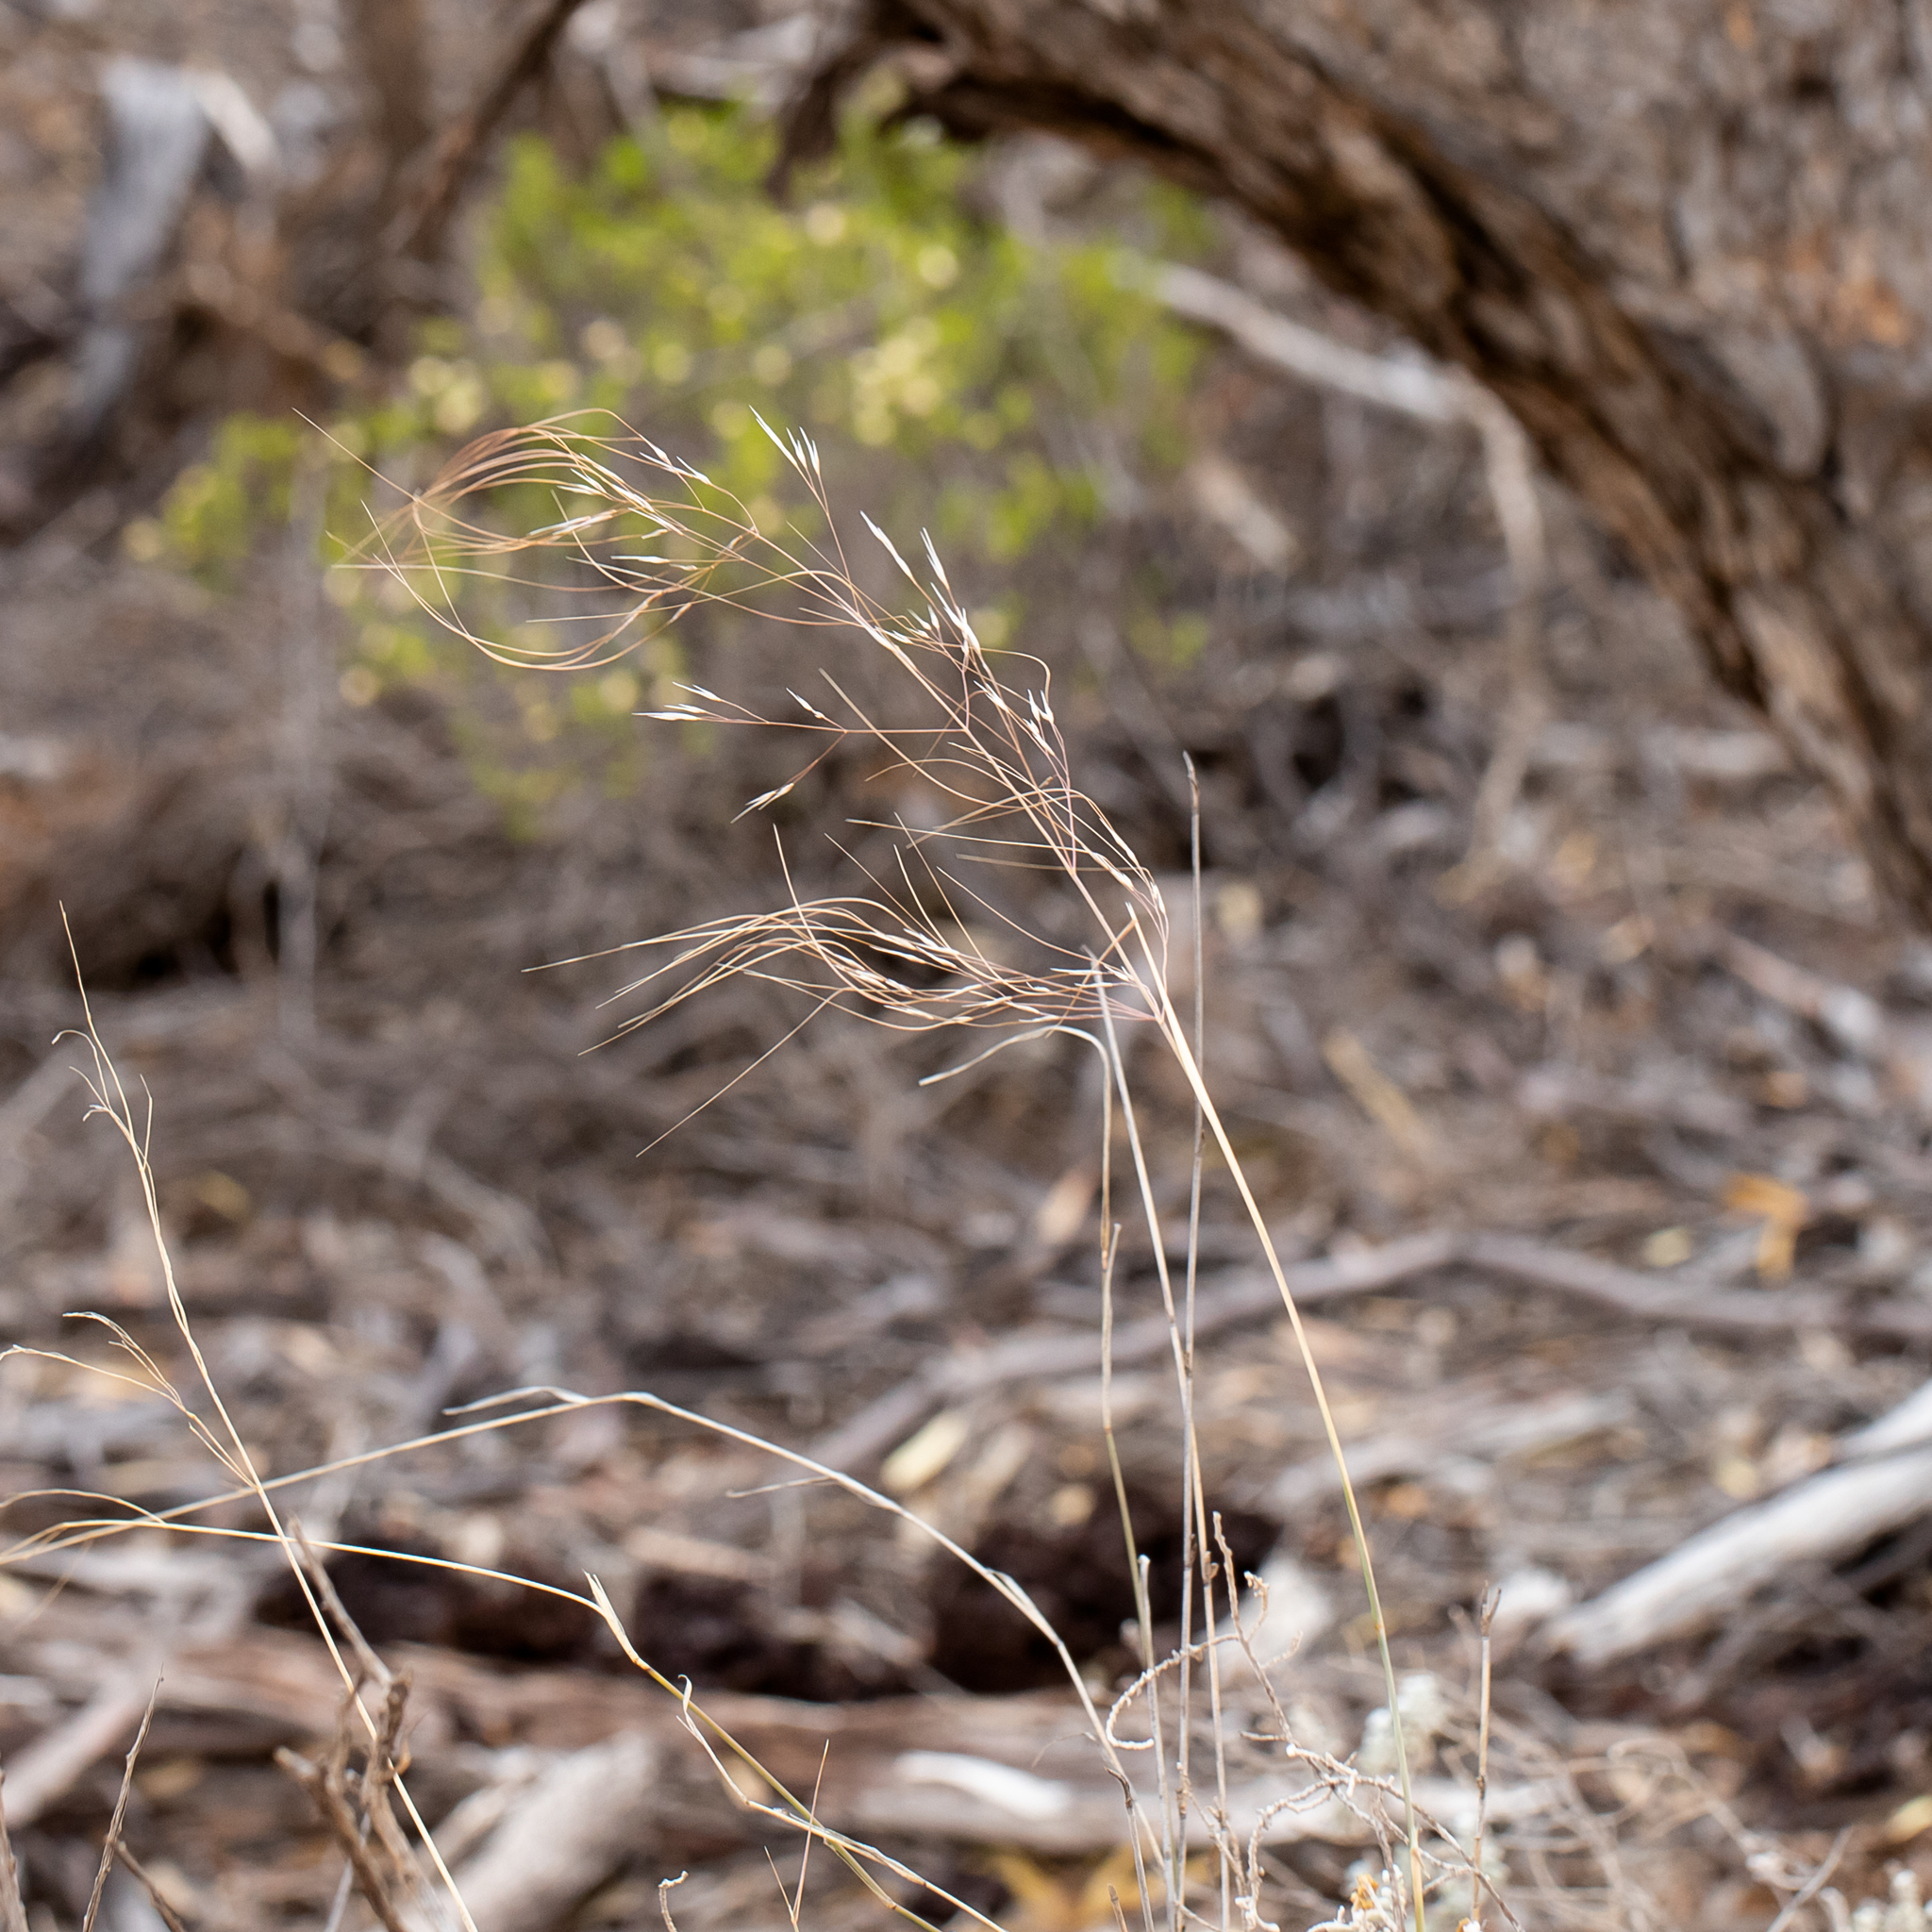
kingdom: Plantae
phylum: Tracheophyta
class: Liliopsida
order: Poales
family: Poaceae
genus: Austrostipa
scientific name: Austrostipa acrociliata
